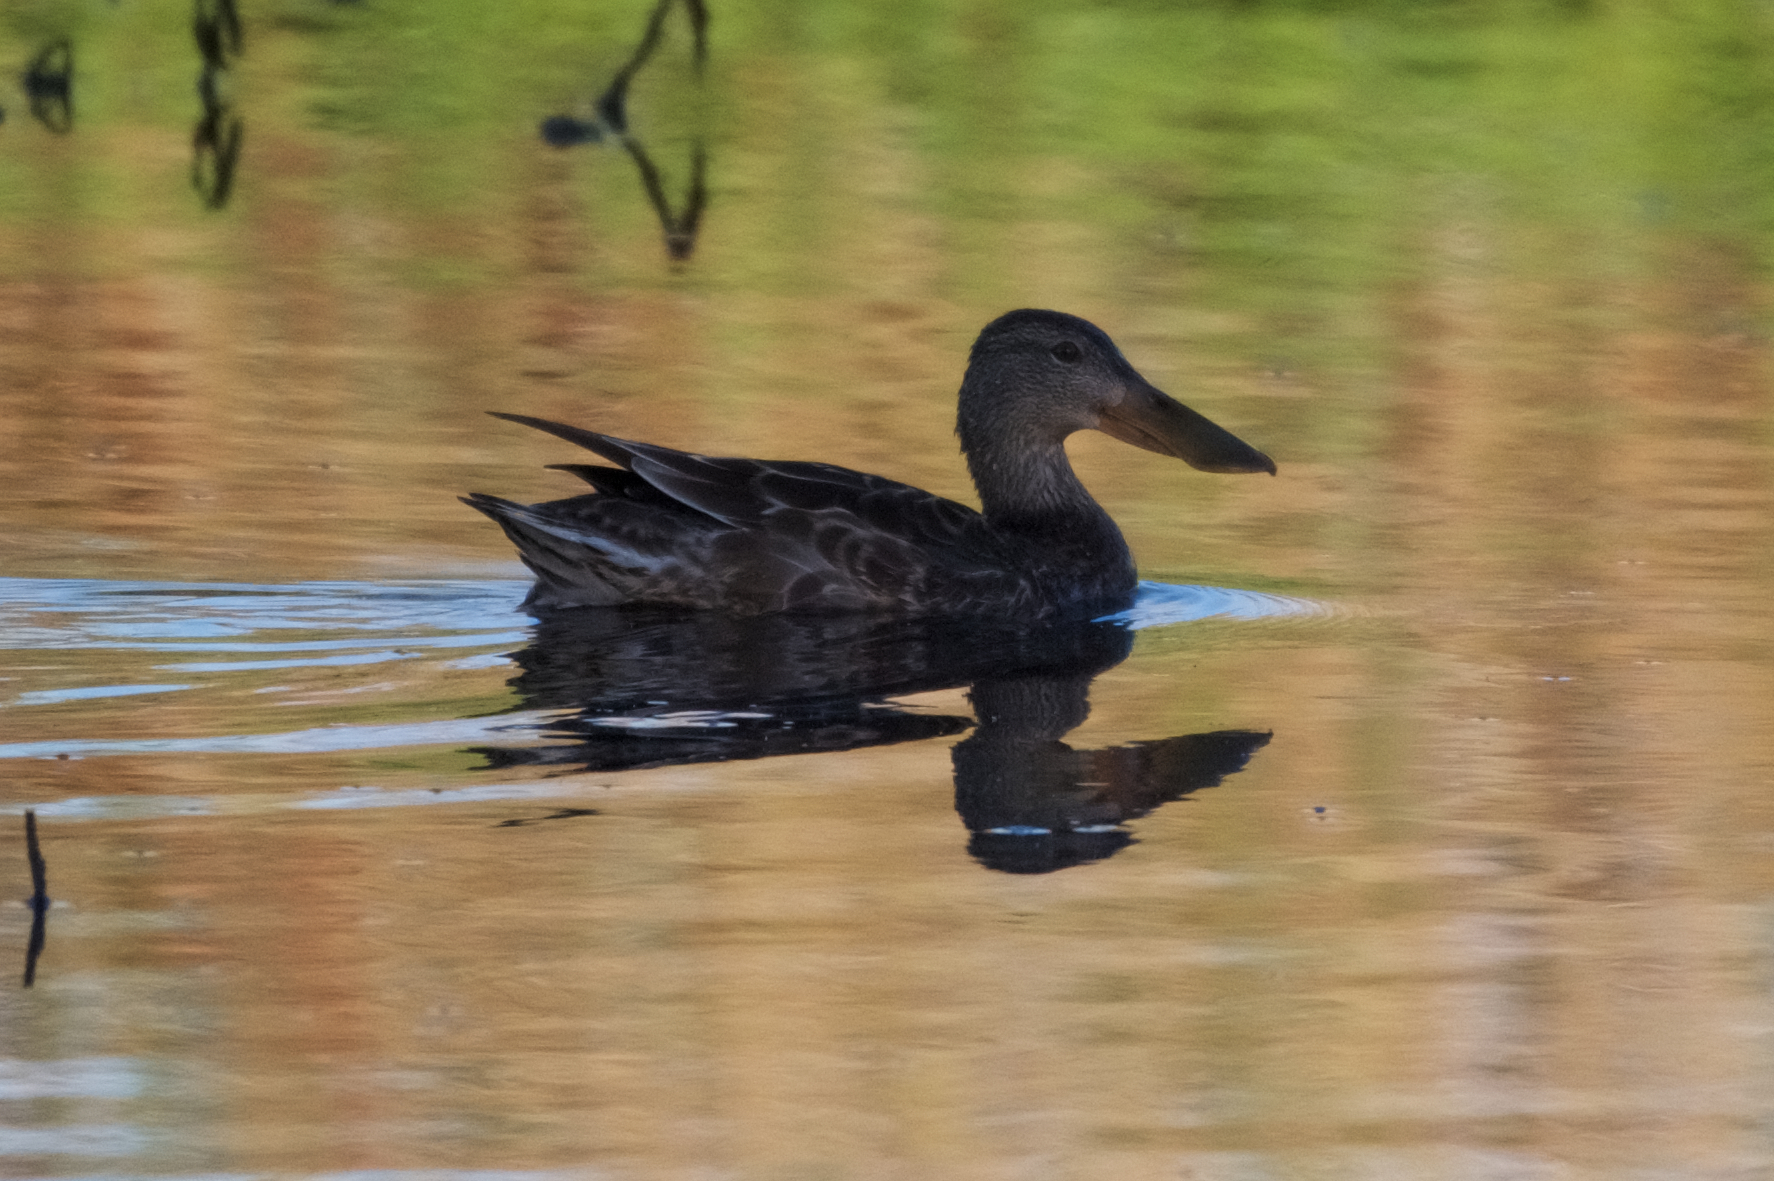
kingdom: Animalia
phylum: Chordata
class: Aves
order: Anseriformes
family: Anatidae
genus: Spatula
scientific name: Spatula clypeata
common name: Northern shoveler
